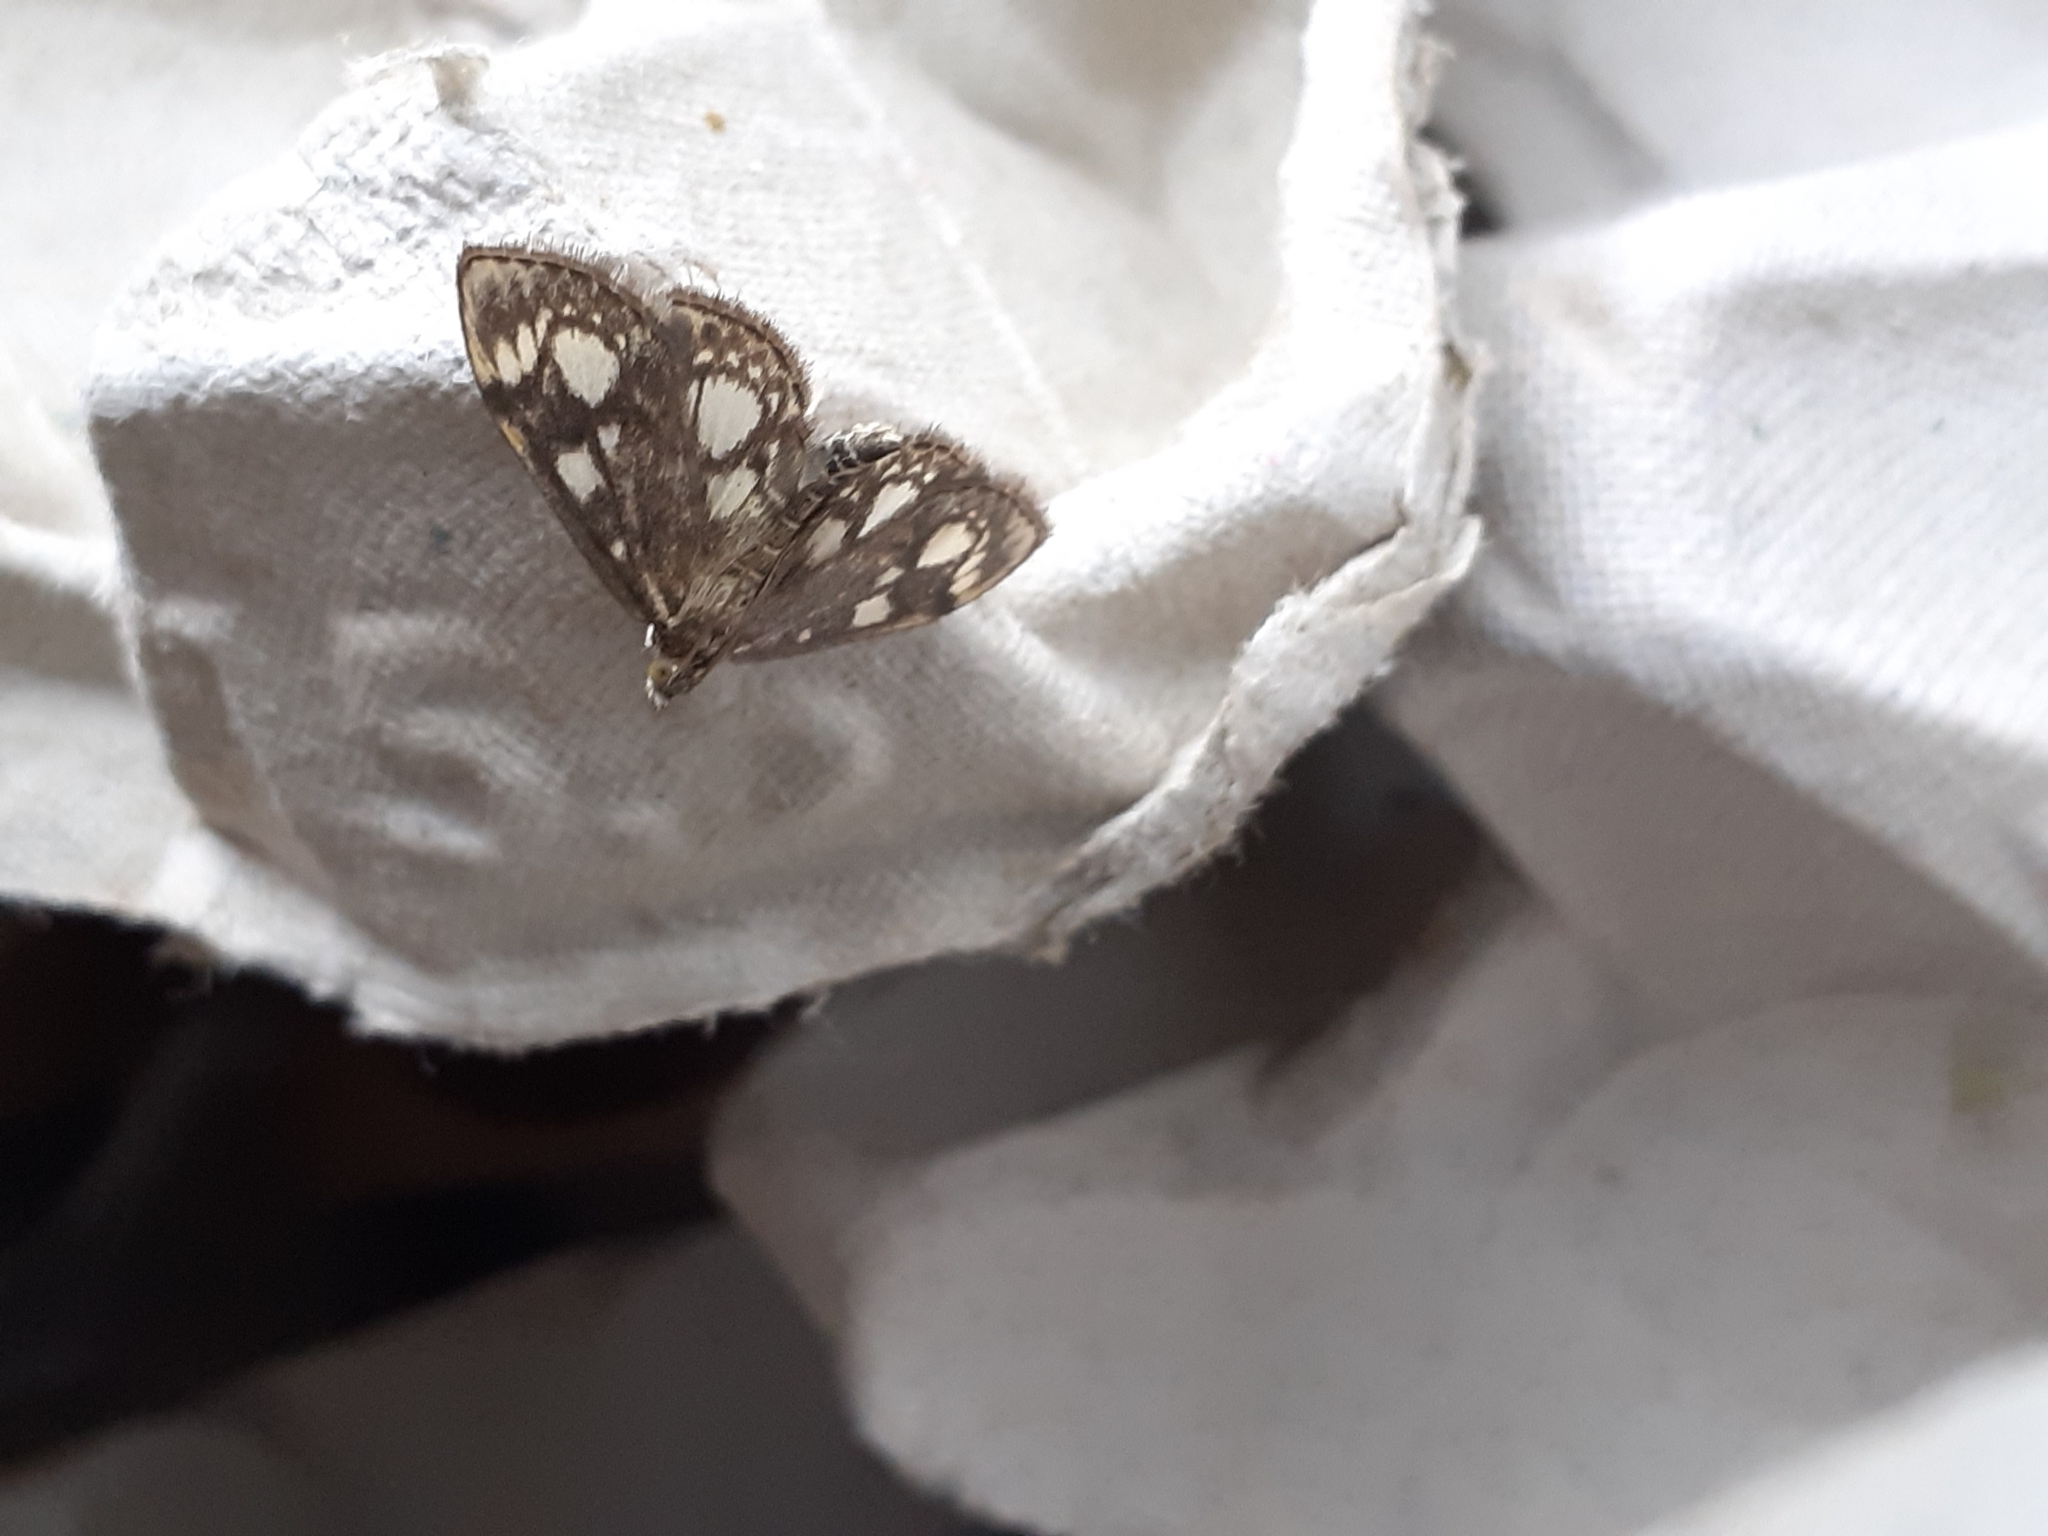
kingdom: Animalia
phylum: Arthropoda
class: Insecta
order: Lepidoptera
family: Crambidae
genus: Anania
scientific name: Anania coronata
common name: Elder pearl
